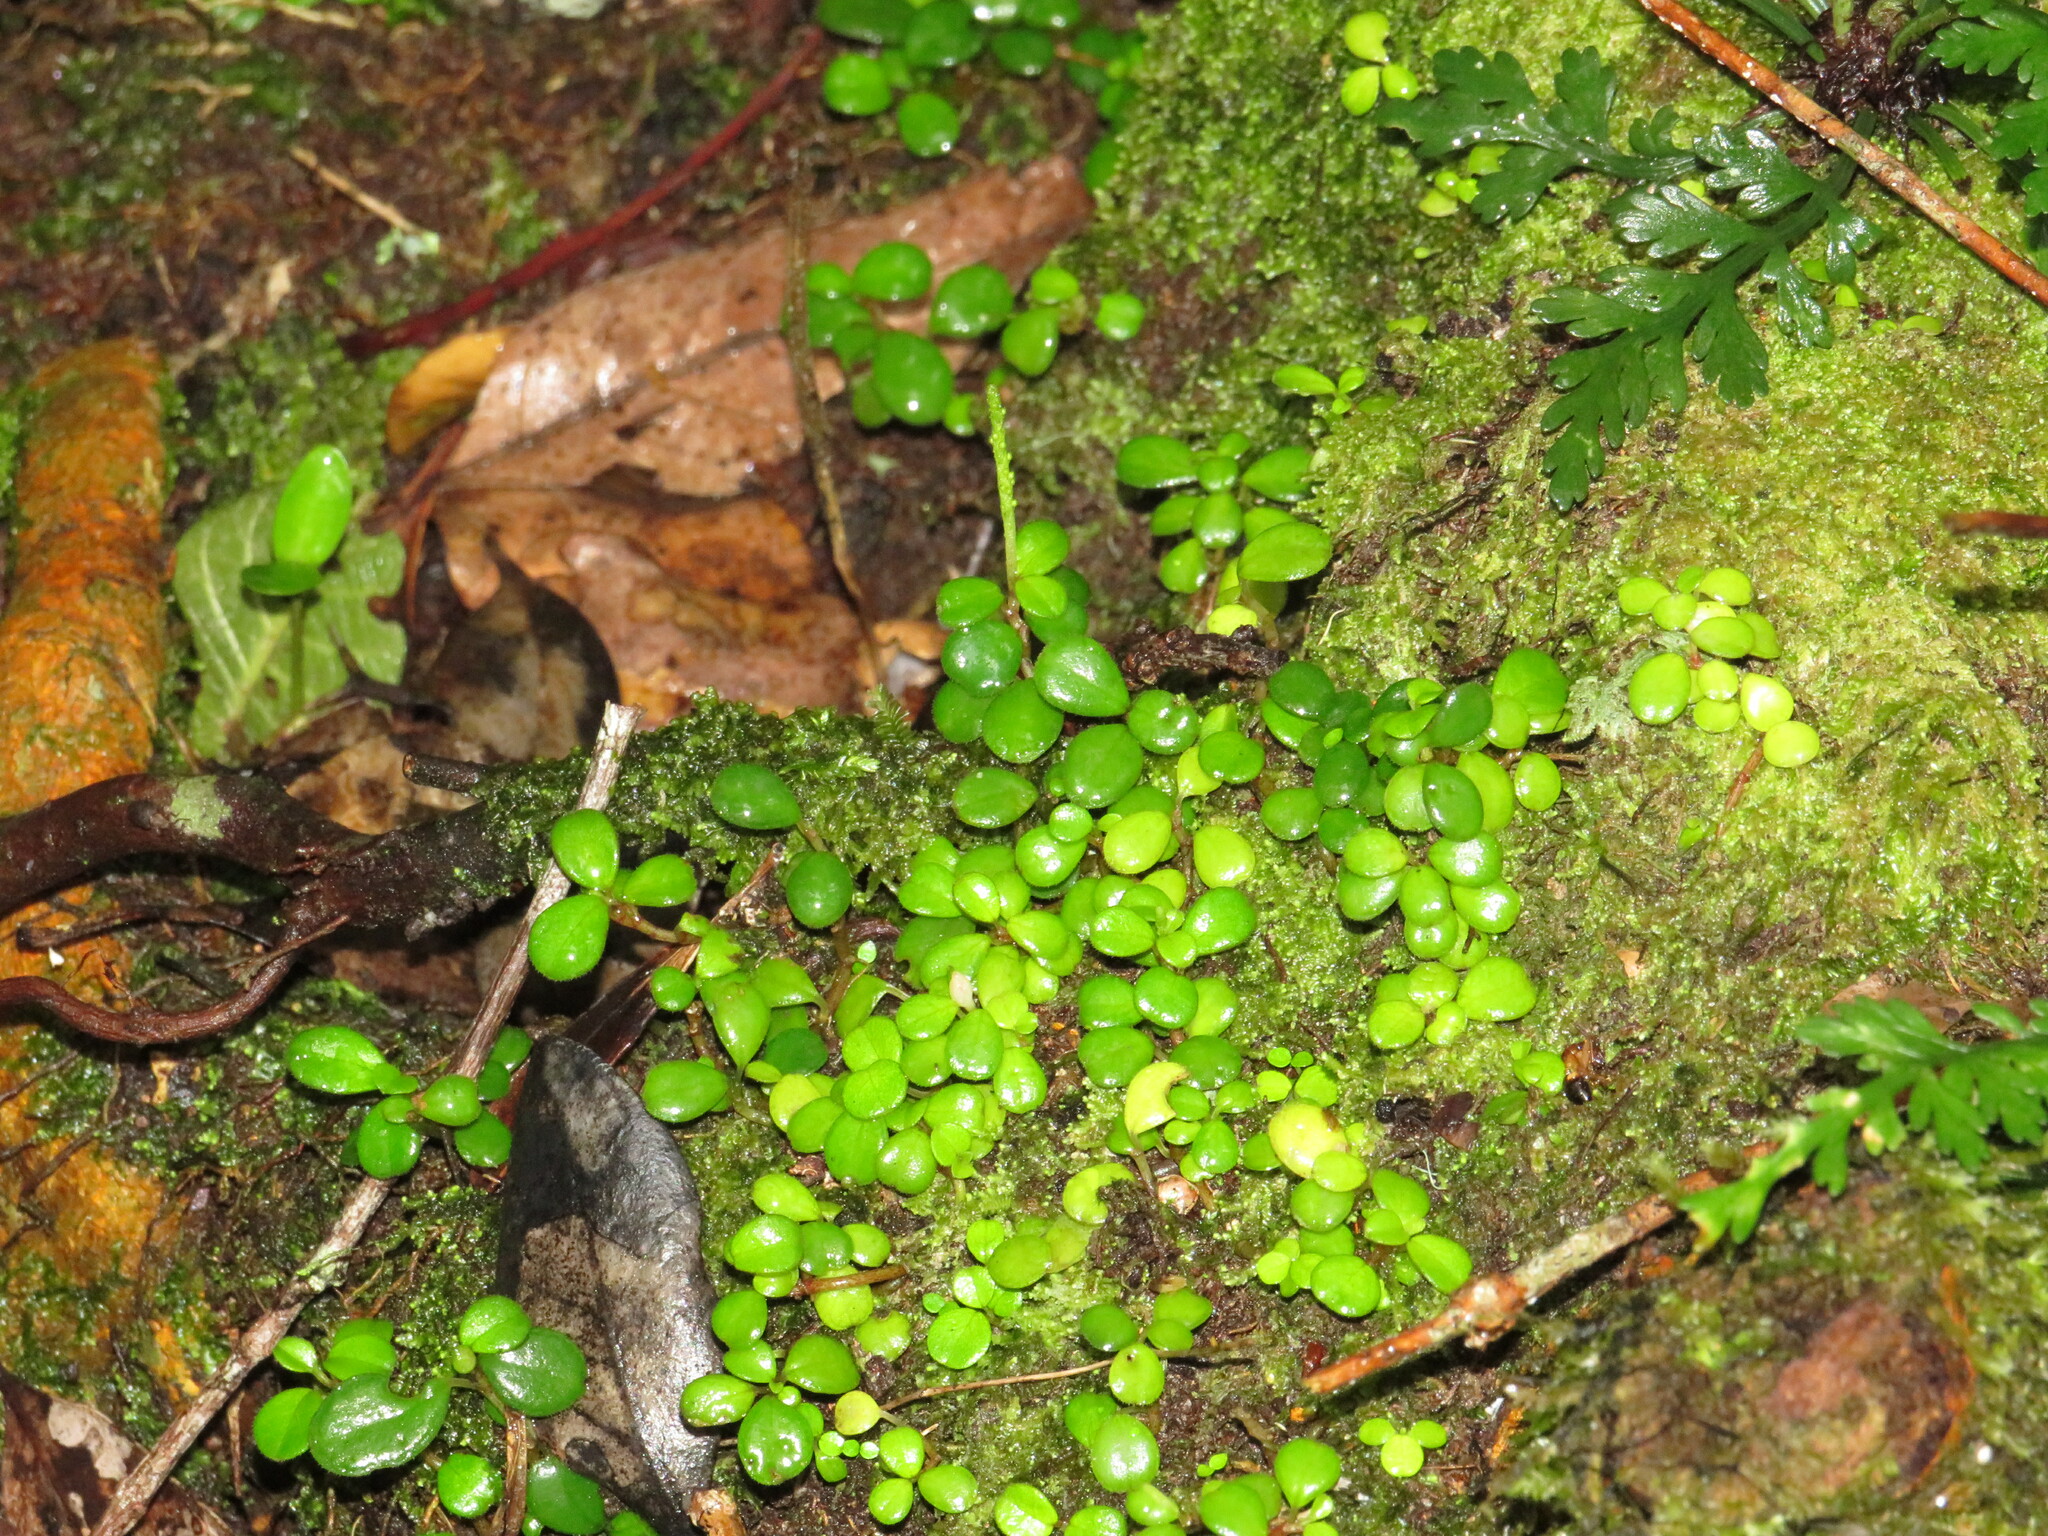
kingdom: Plantae
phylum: Tracheophyta
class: Magnoliopsida
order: Piperales
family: Piperaceae
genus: Peperomia
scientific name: Peperomia retusa
